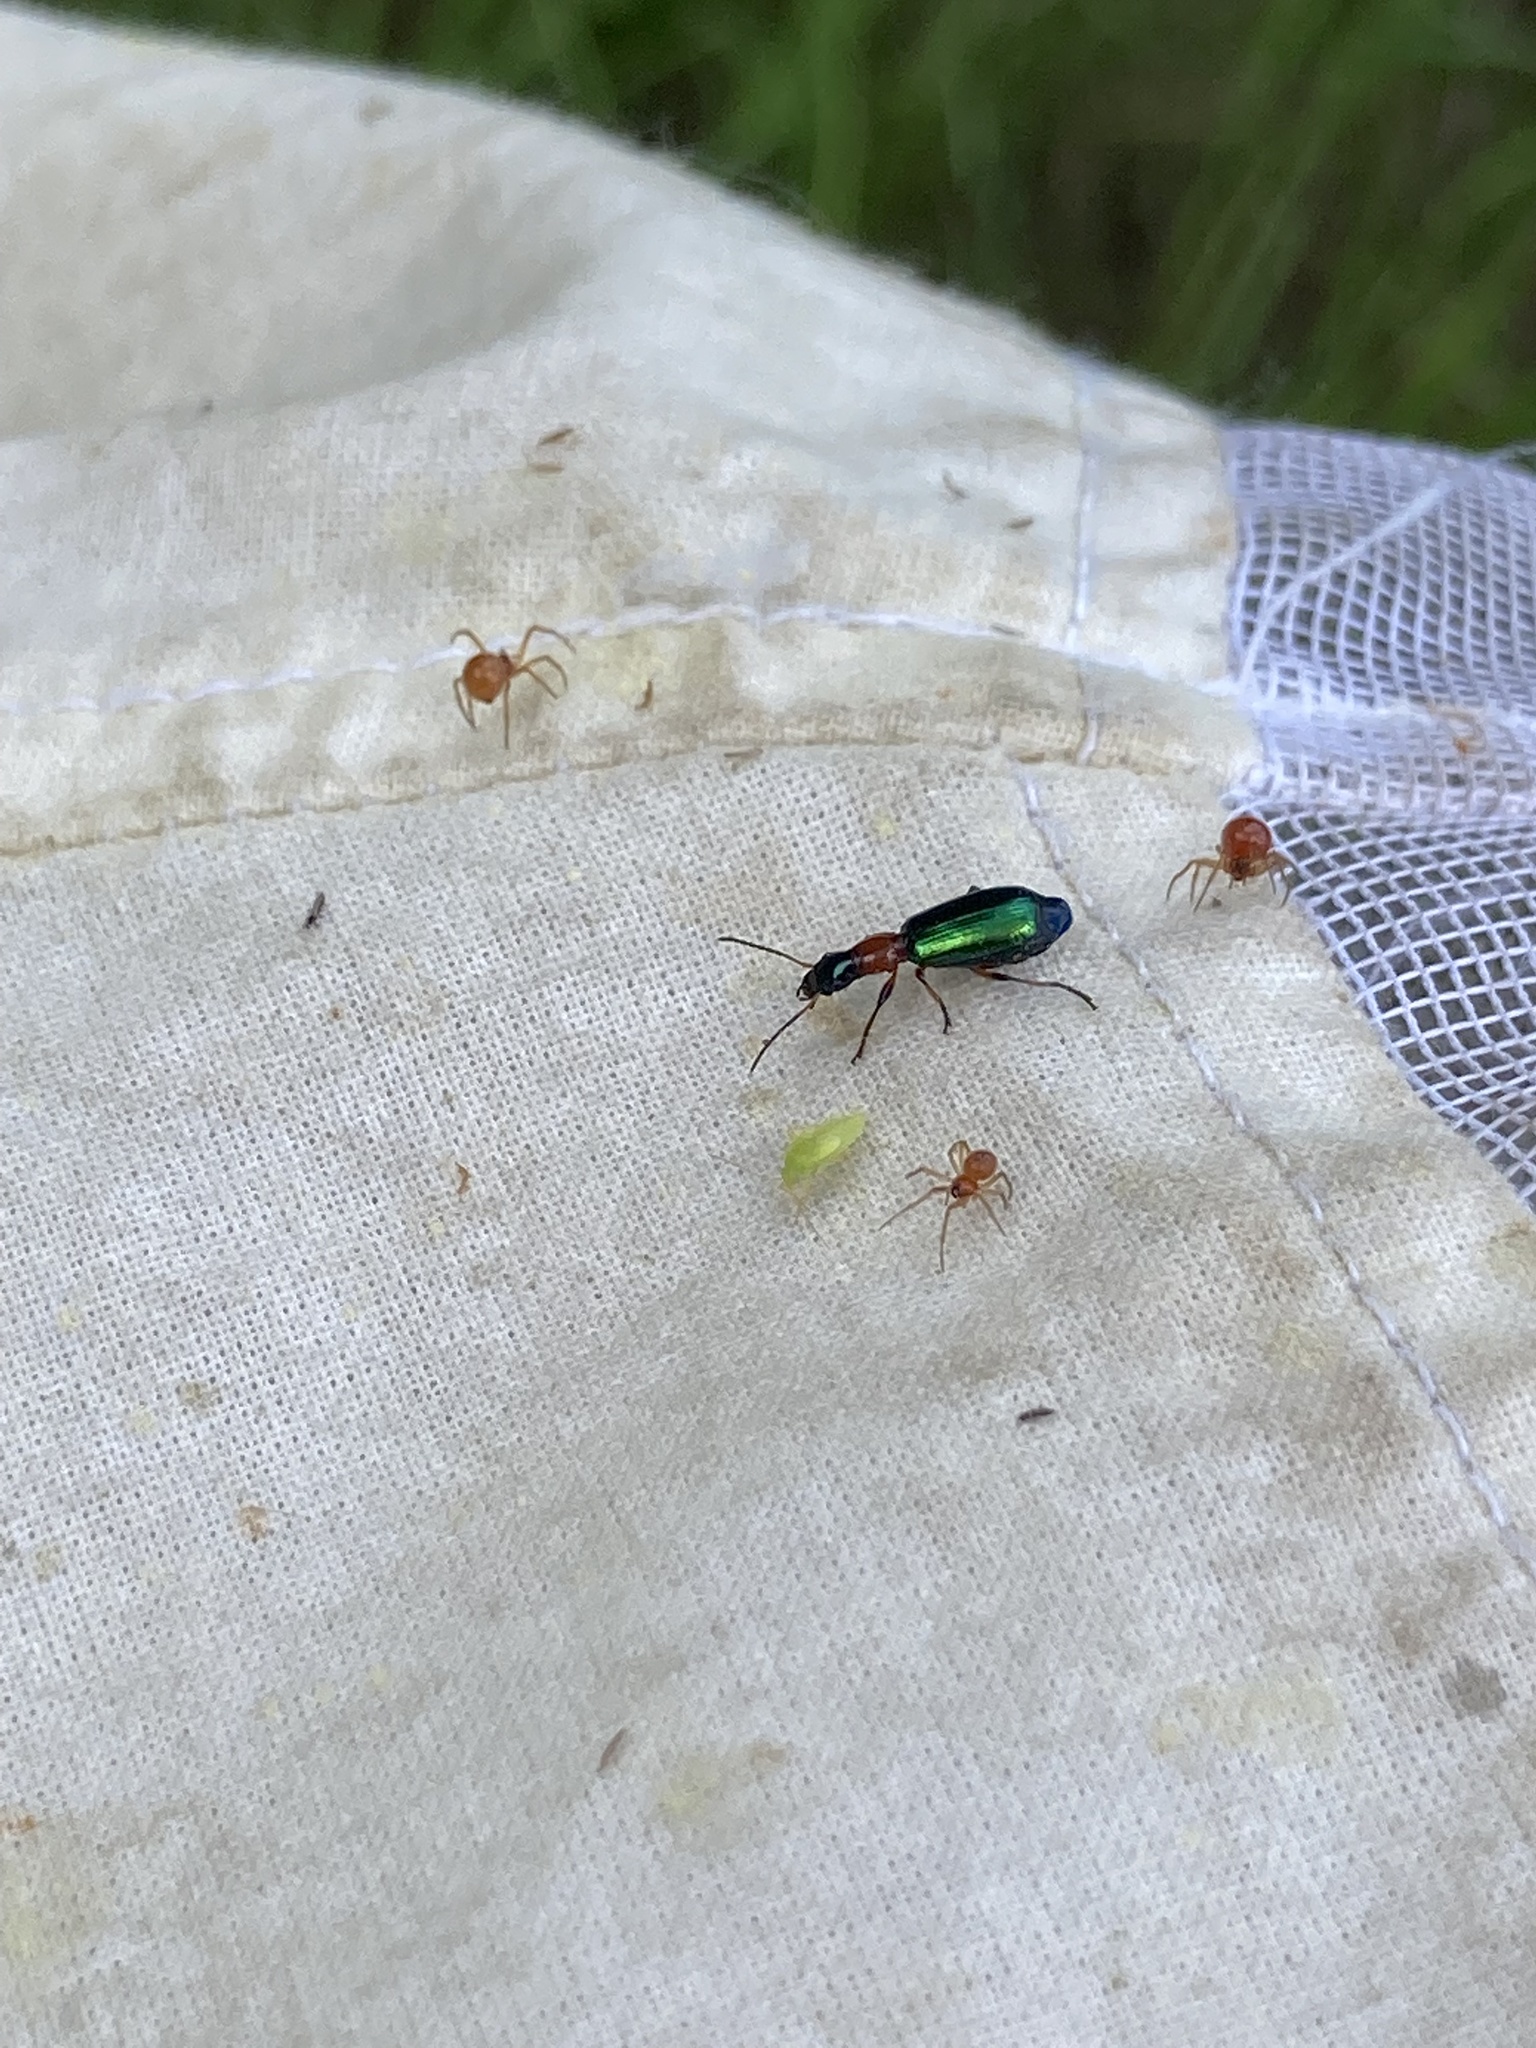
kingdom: Animalia
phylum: Arthropoda
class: Insecta
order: Coleoptera
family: Carabidae
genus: Calleida
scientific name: Calleida punctata
